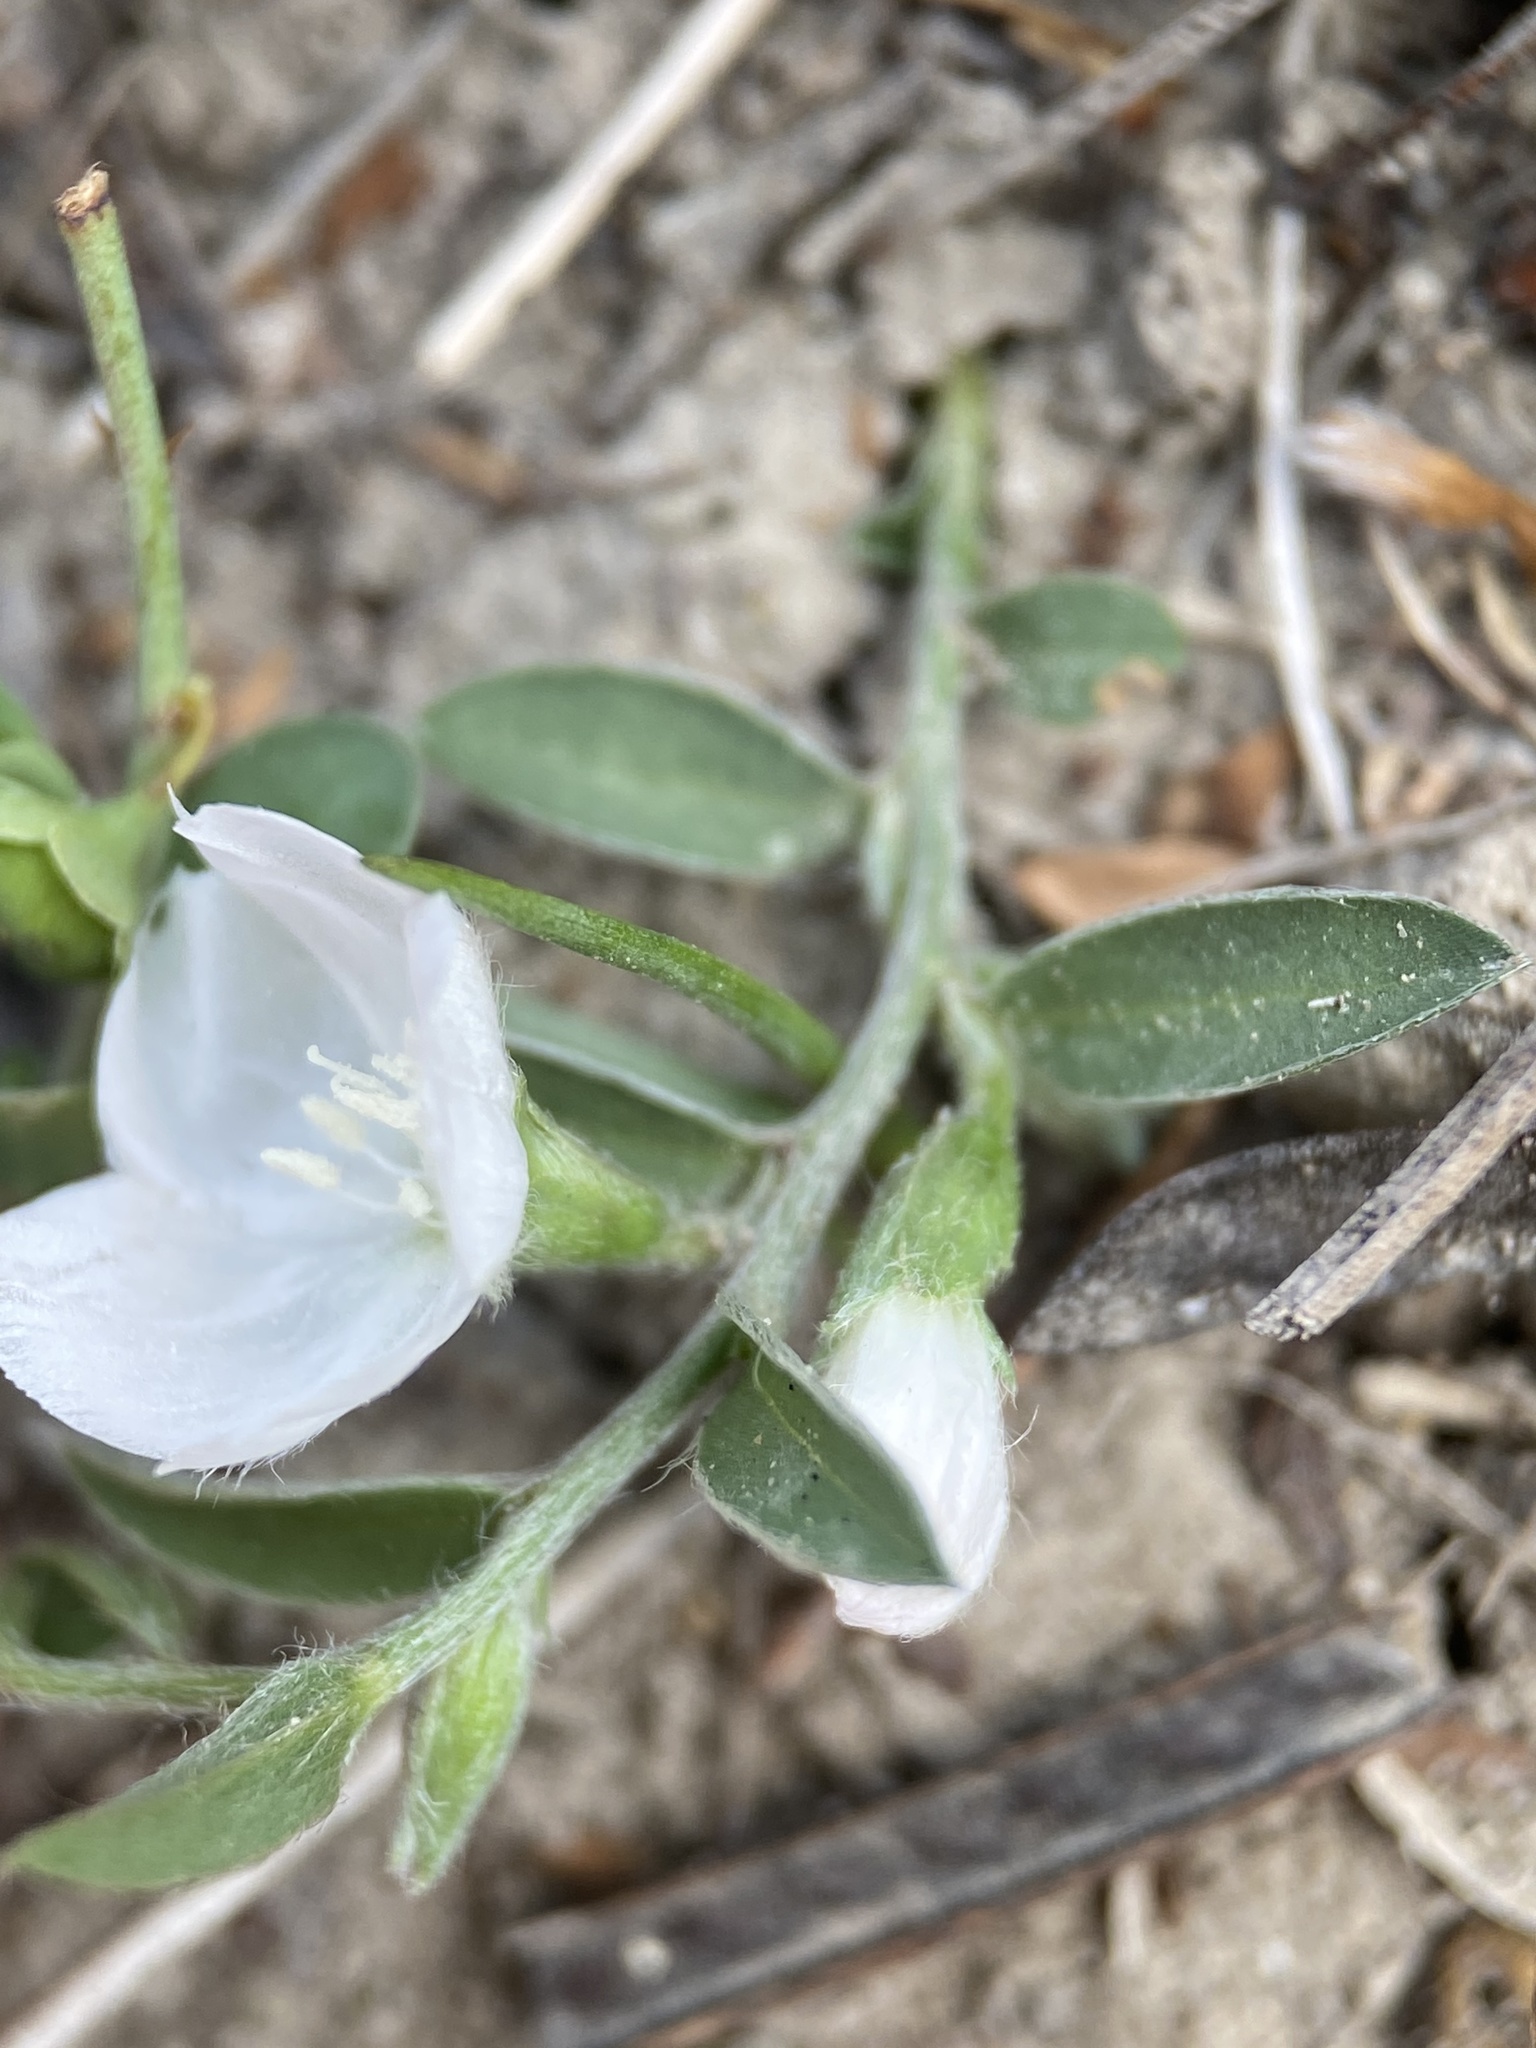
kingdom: Plantae
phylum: Tracheophyta
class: Magnoliopsida
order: Solanales
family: Convolvulaceae
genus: Evolvulus
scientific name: Evolvulus sericeus
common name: Blue dots
